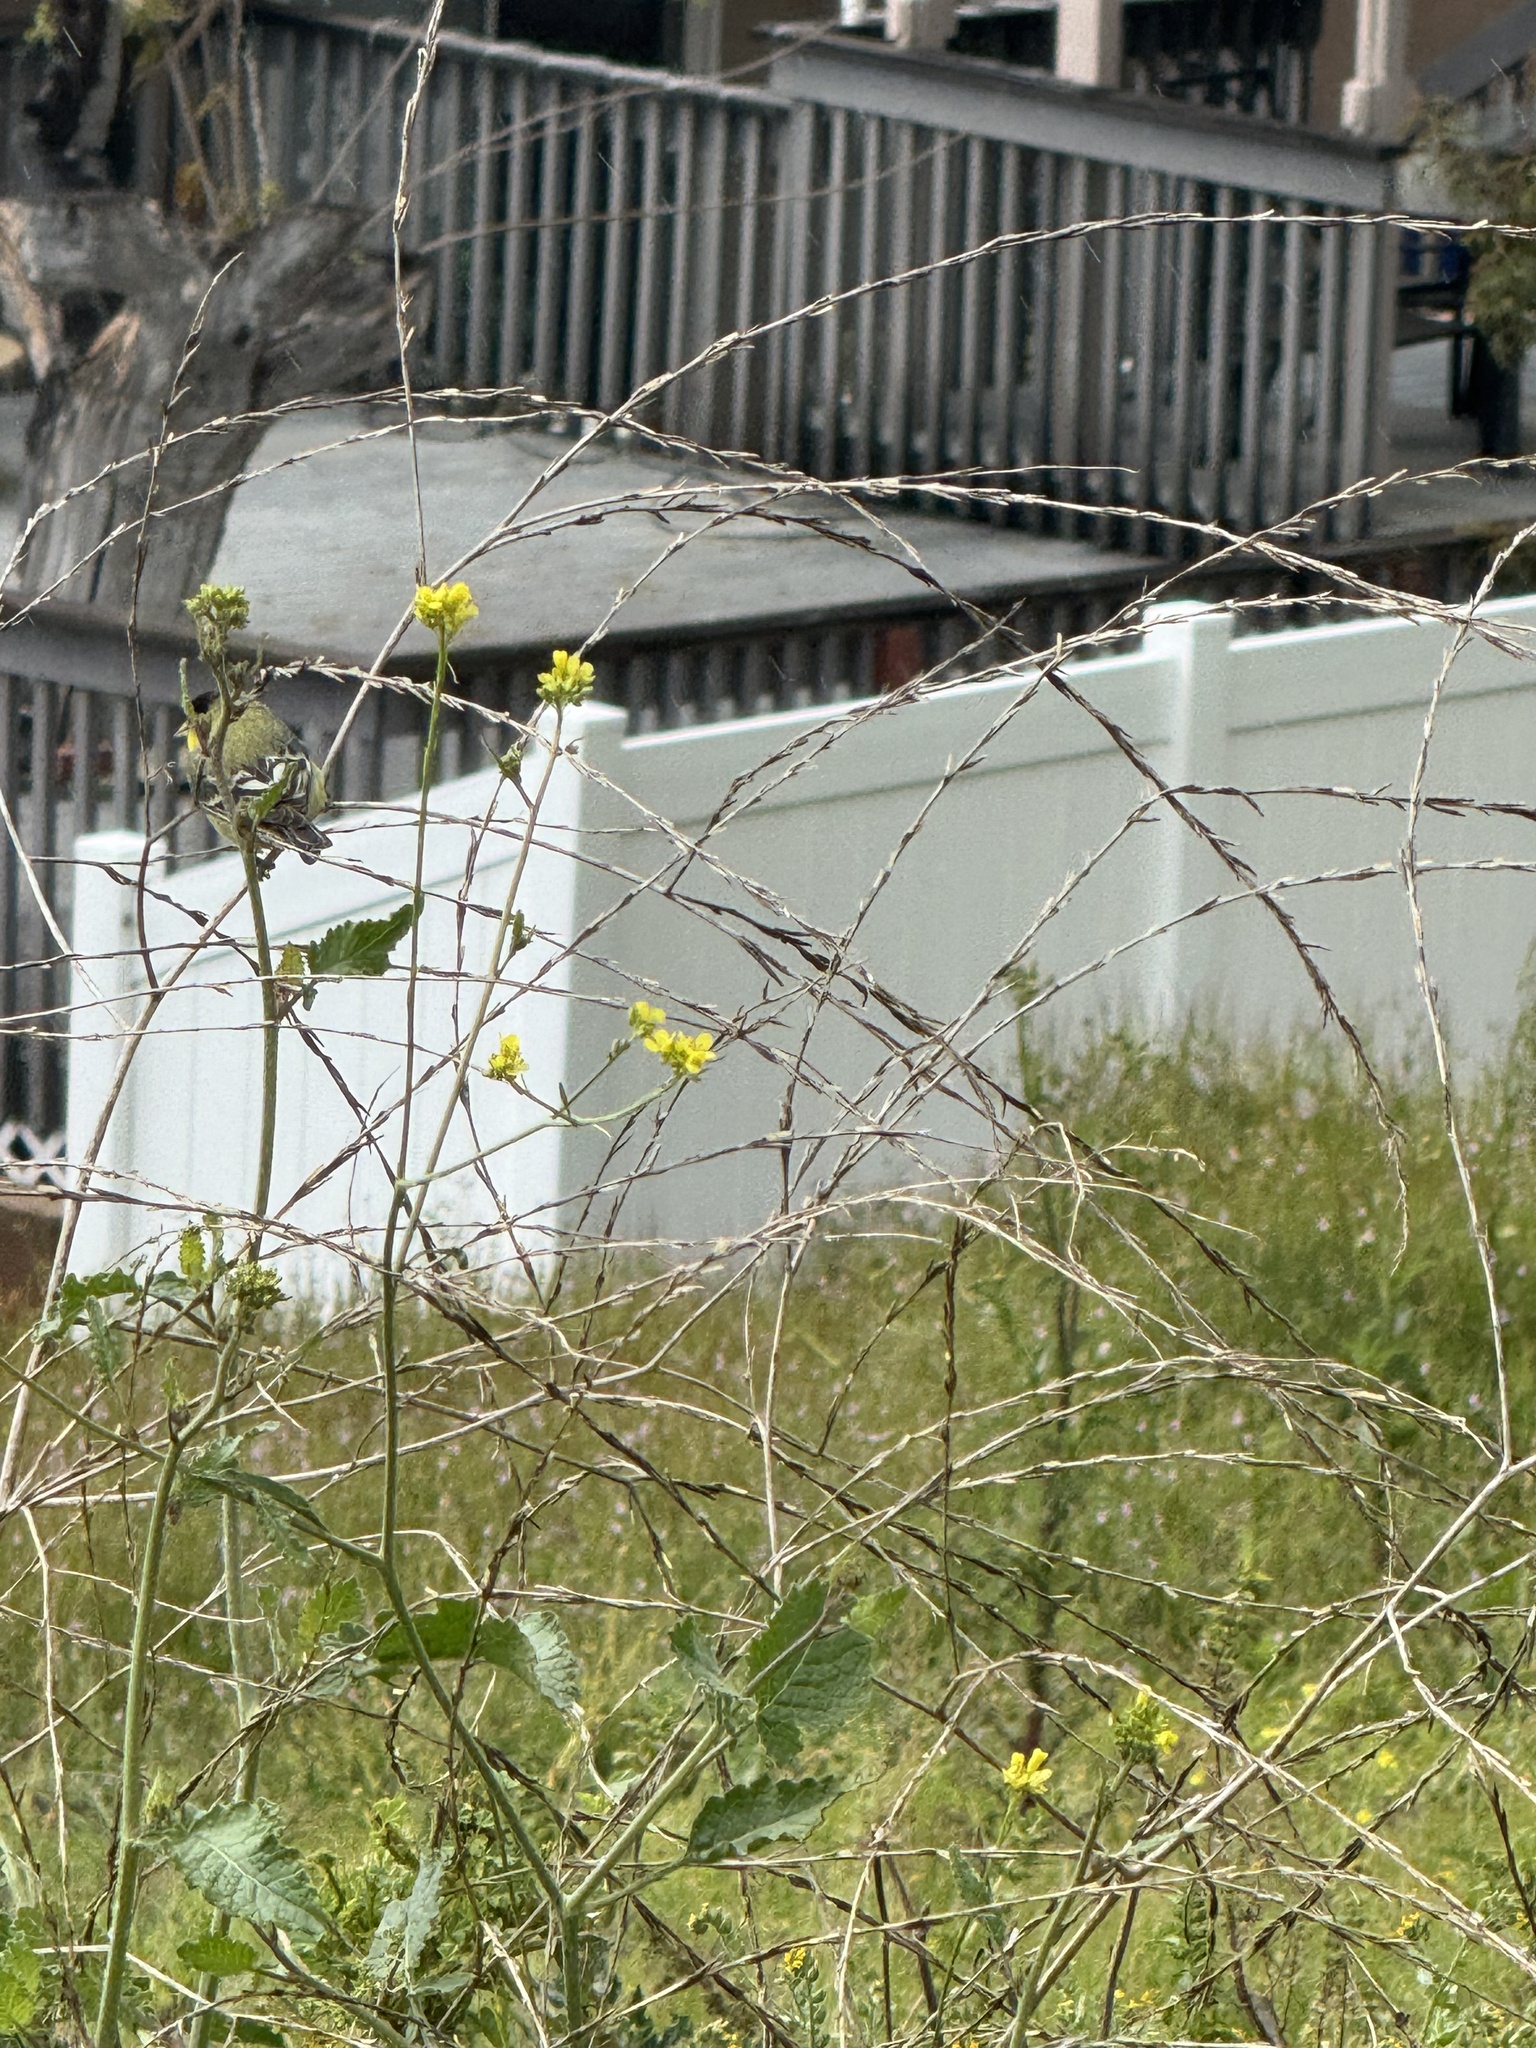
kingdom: Animalia
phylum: Chordata
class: Aves
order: Passeriformes
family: Fringillidae
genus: Spinus
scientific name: Spinus psaltria
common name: Lesser goldfinch
